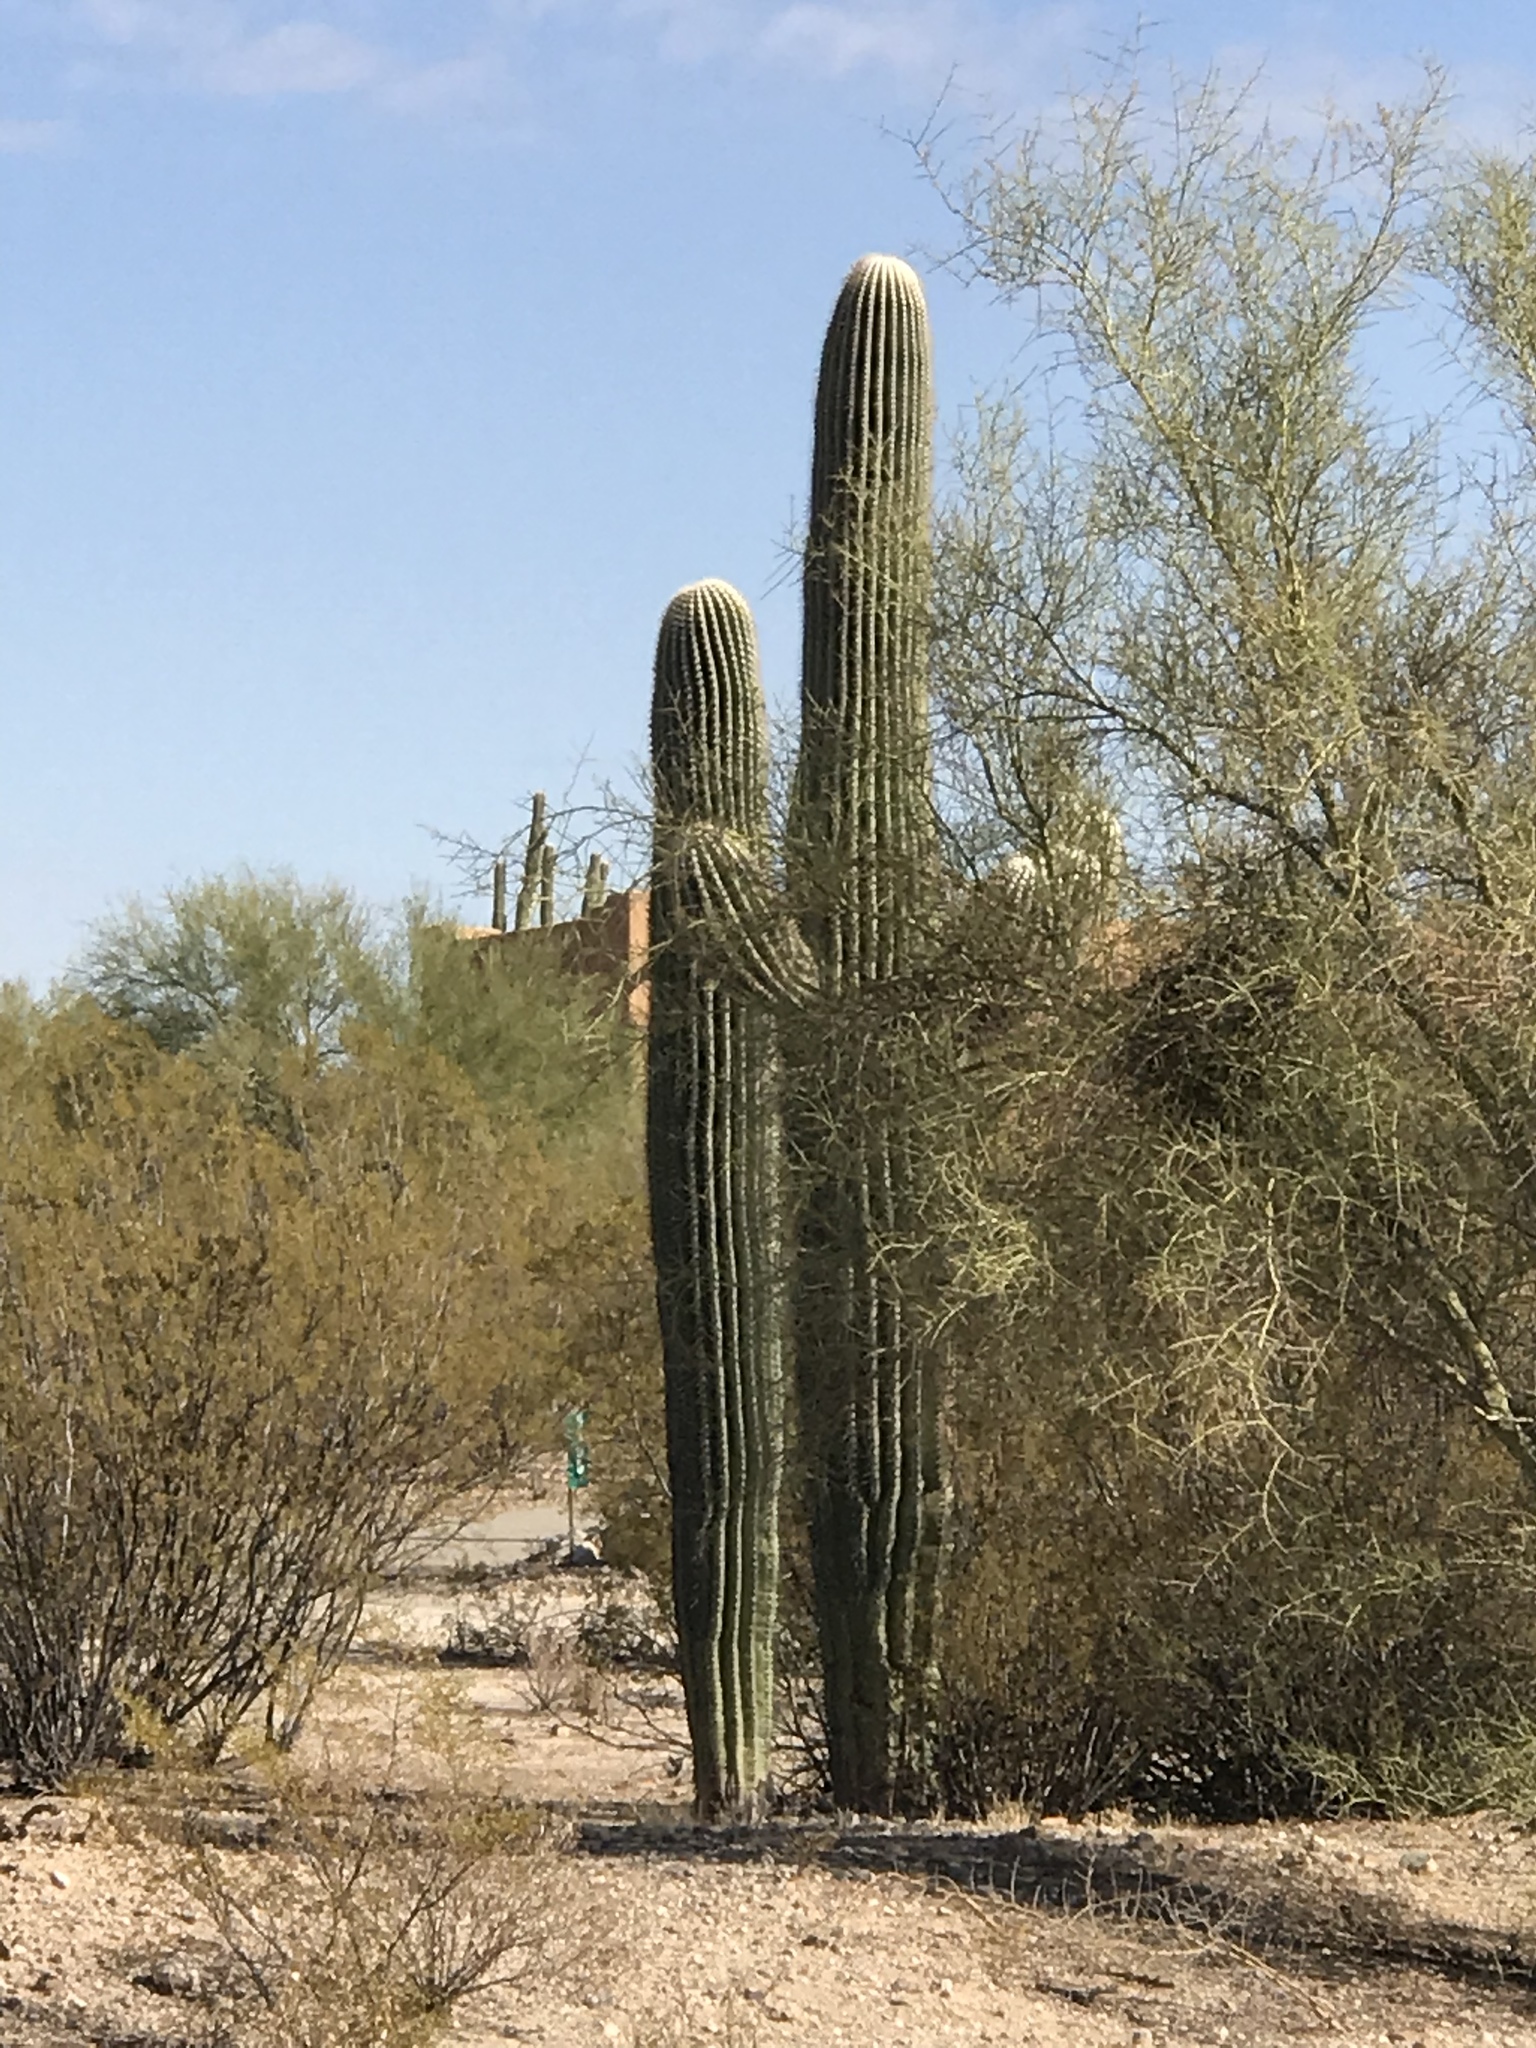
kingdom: Plantae
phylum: Tracheophyta
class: Magnoliopsida
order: Caryophyllales
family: Cactaceae
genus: Carnegiea
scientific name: Carnegiea gigantea
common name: Saguaro
